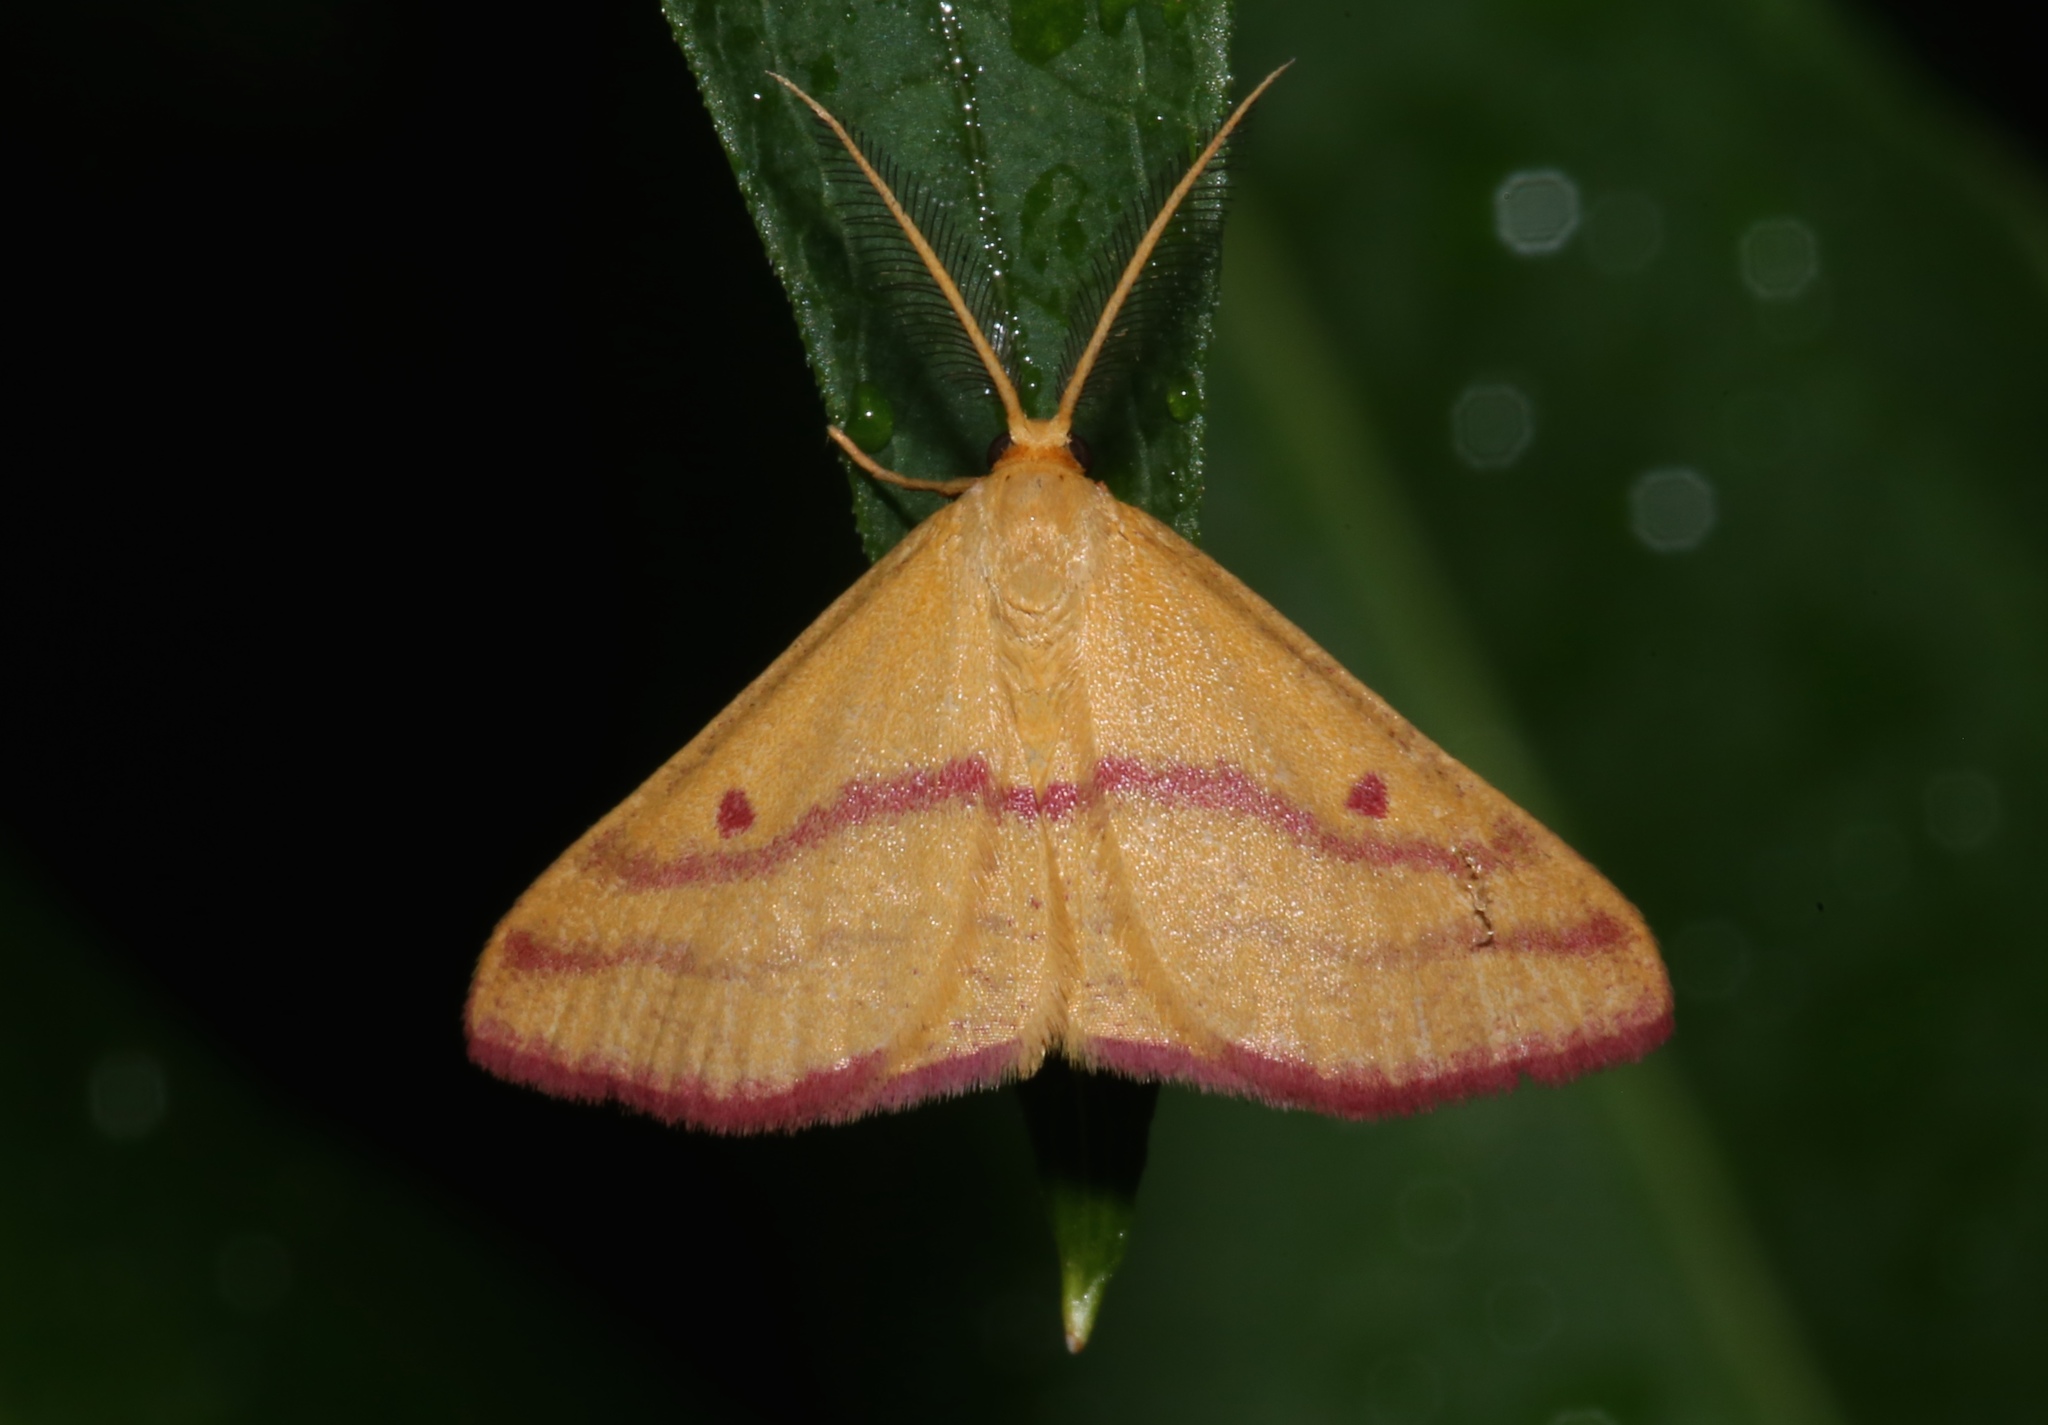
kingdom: Animalia
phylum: Arthropoda
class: Insecta
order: Lepidoptera
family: Geometridae
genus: Haematopis
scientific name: Haematopis grataria
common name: Chickweed geometer
